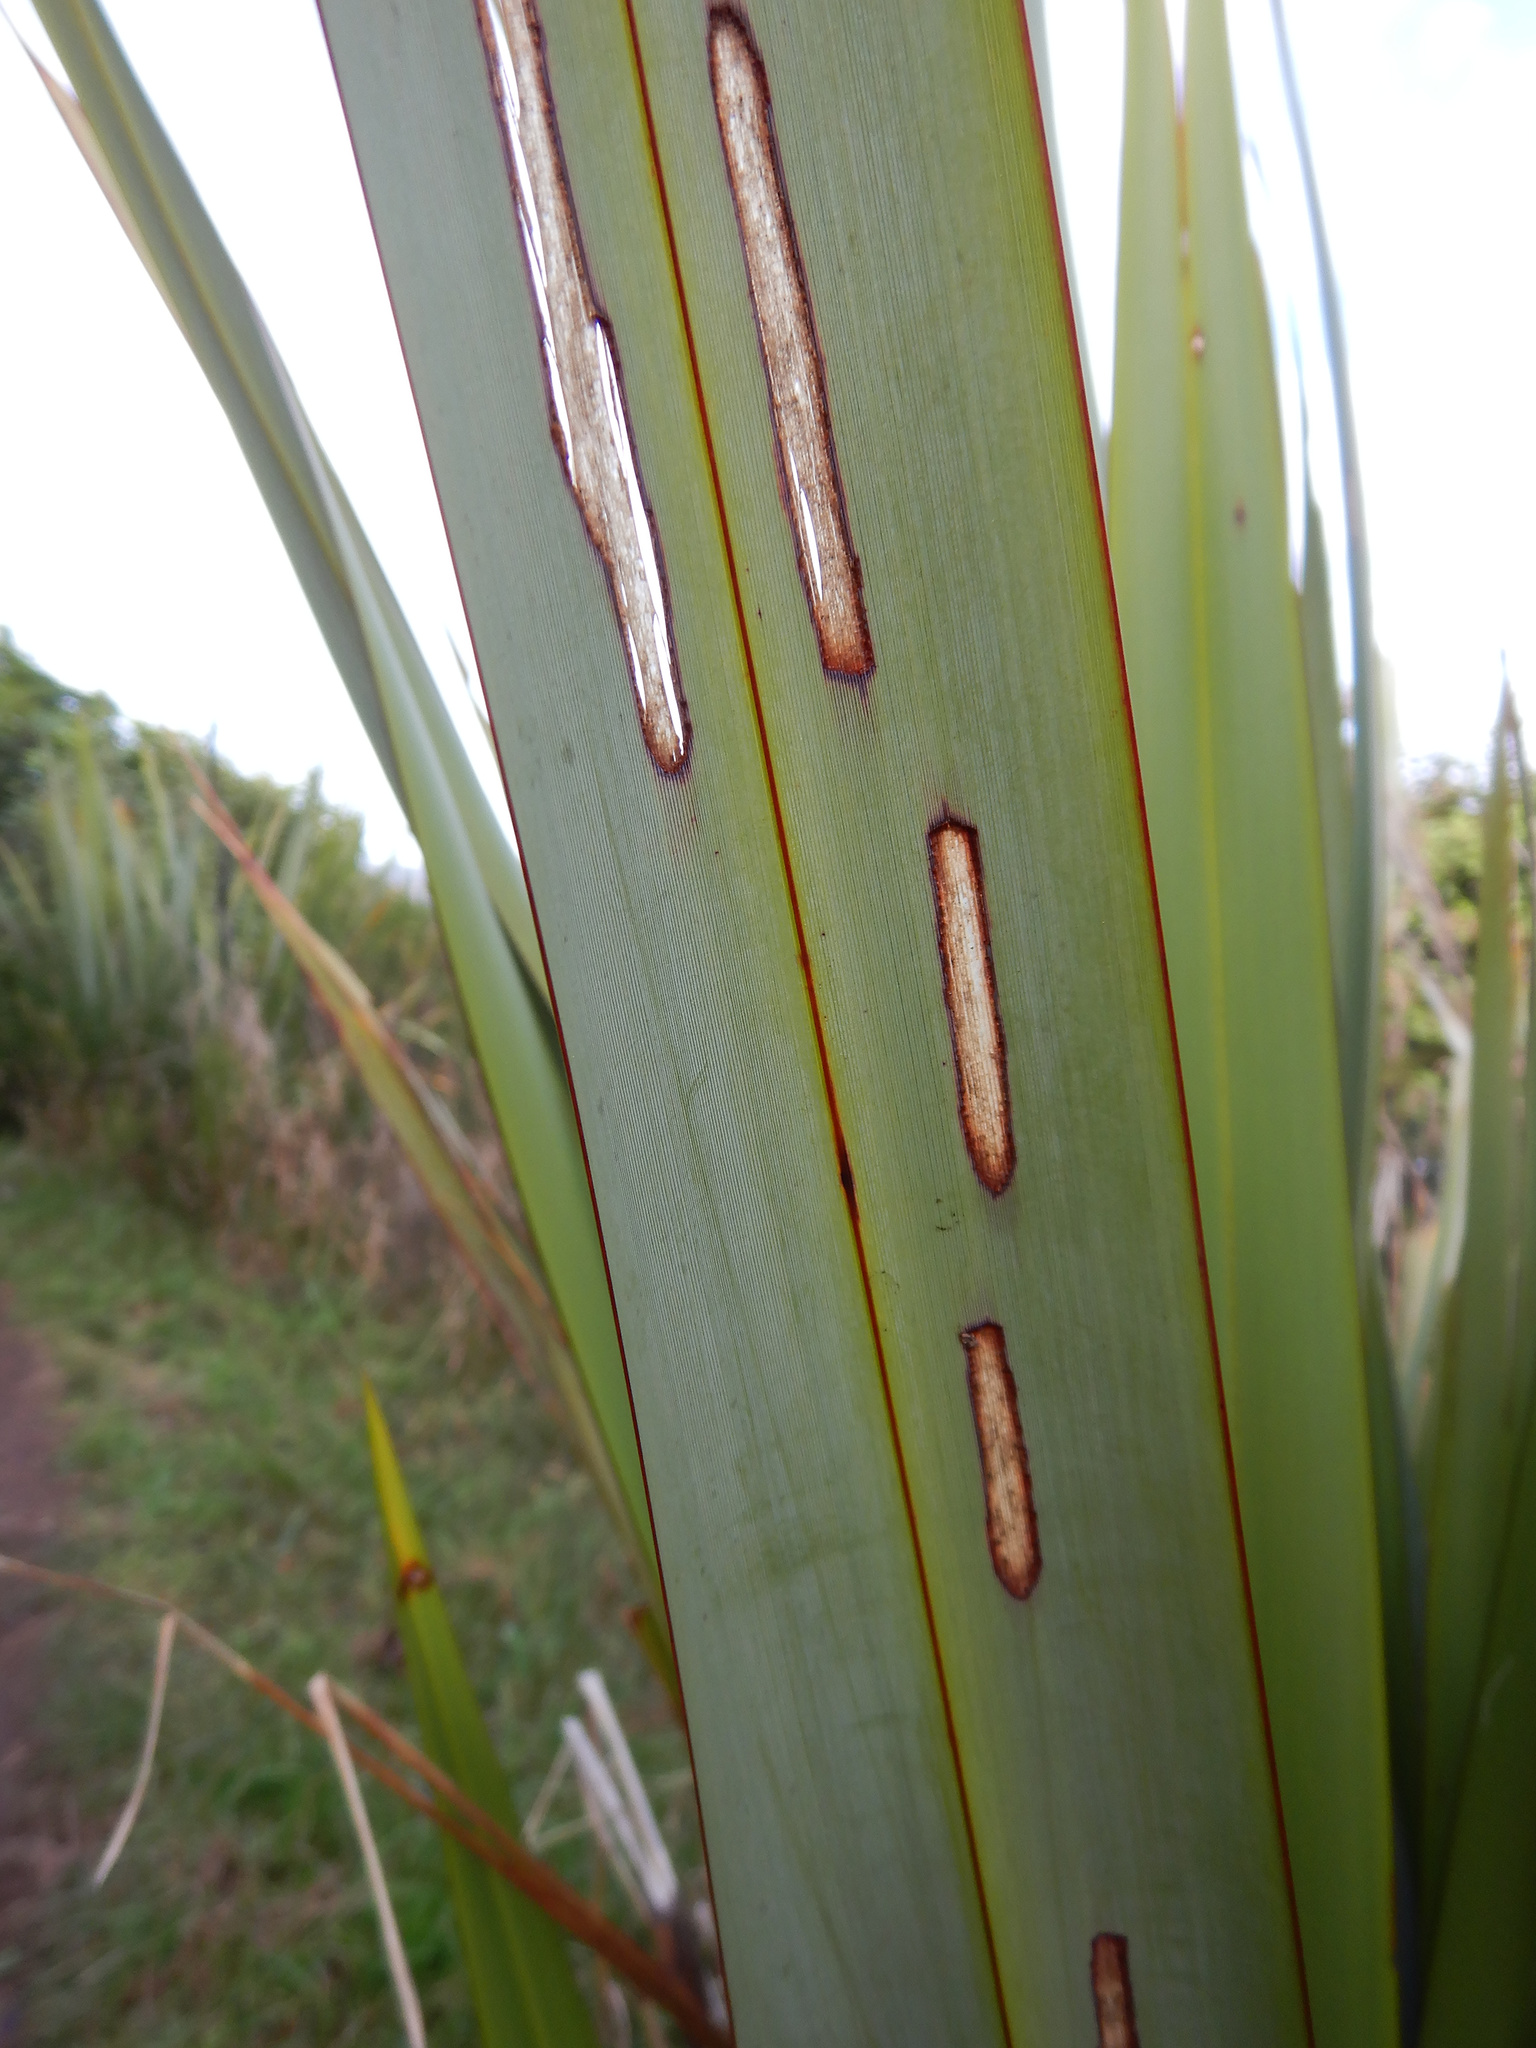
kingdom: Animalia
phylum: Arthropoda
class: Insecta
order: Lepidoptera
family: Geometridae
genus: Orthoclydon
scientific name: Orthoclydon praefectata
